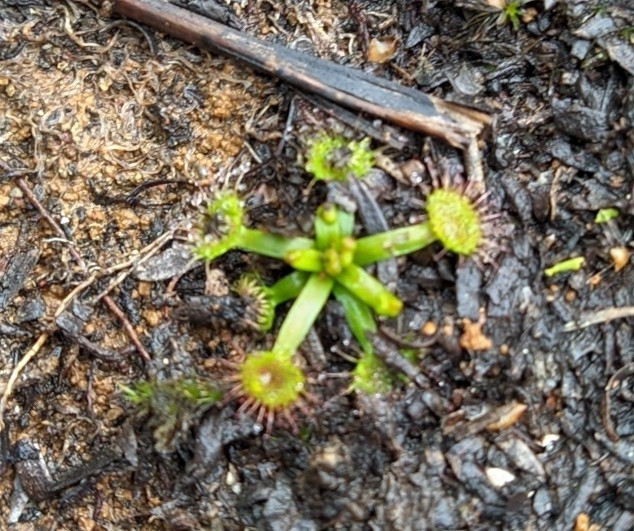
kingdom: Plantae
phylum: Tracheophyta
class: Magnoliopsida
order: Caryophyllales
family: Droseraceae
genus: Drosera
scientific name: Drosera
